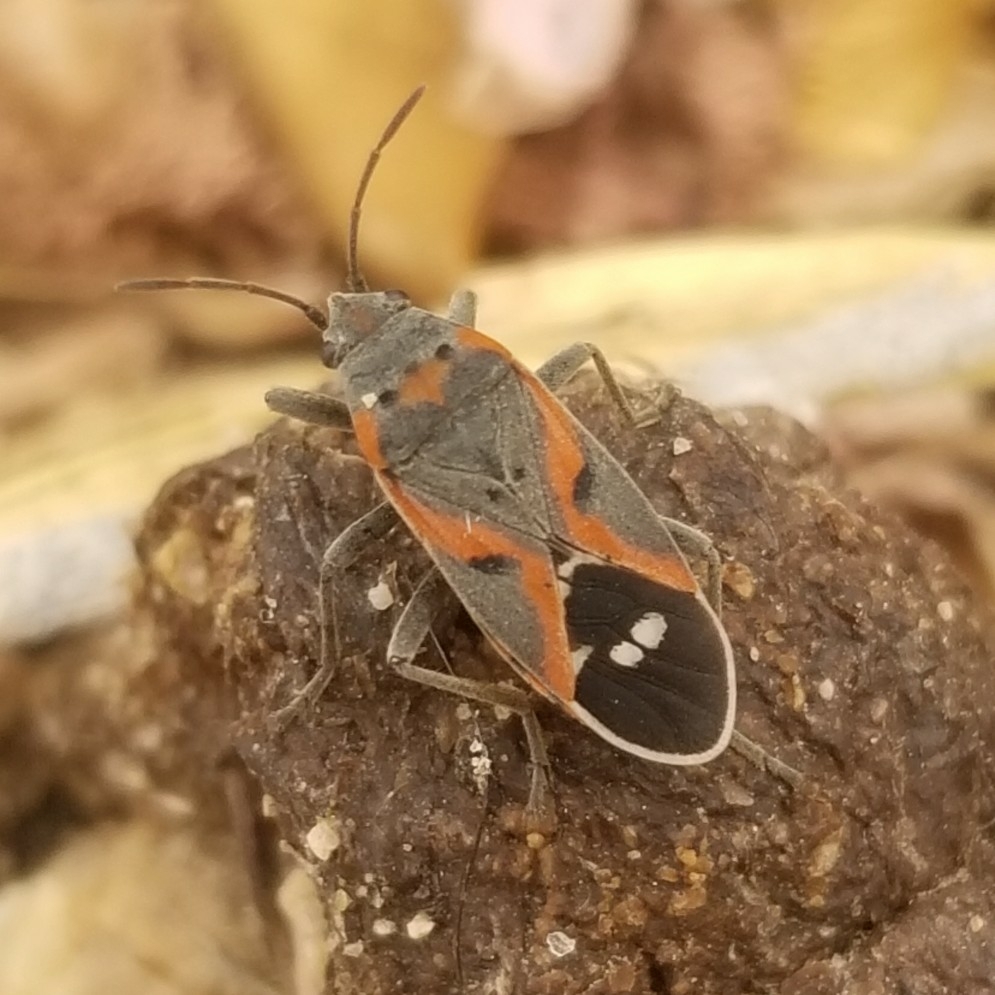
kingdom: Animalia
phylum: Arthropoda
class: Insecta
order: Hemiptera
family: Lygaeidae
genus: Lygaeus
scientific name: Lygaeus kalmii
